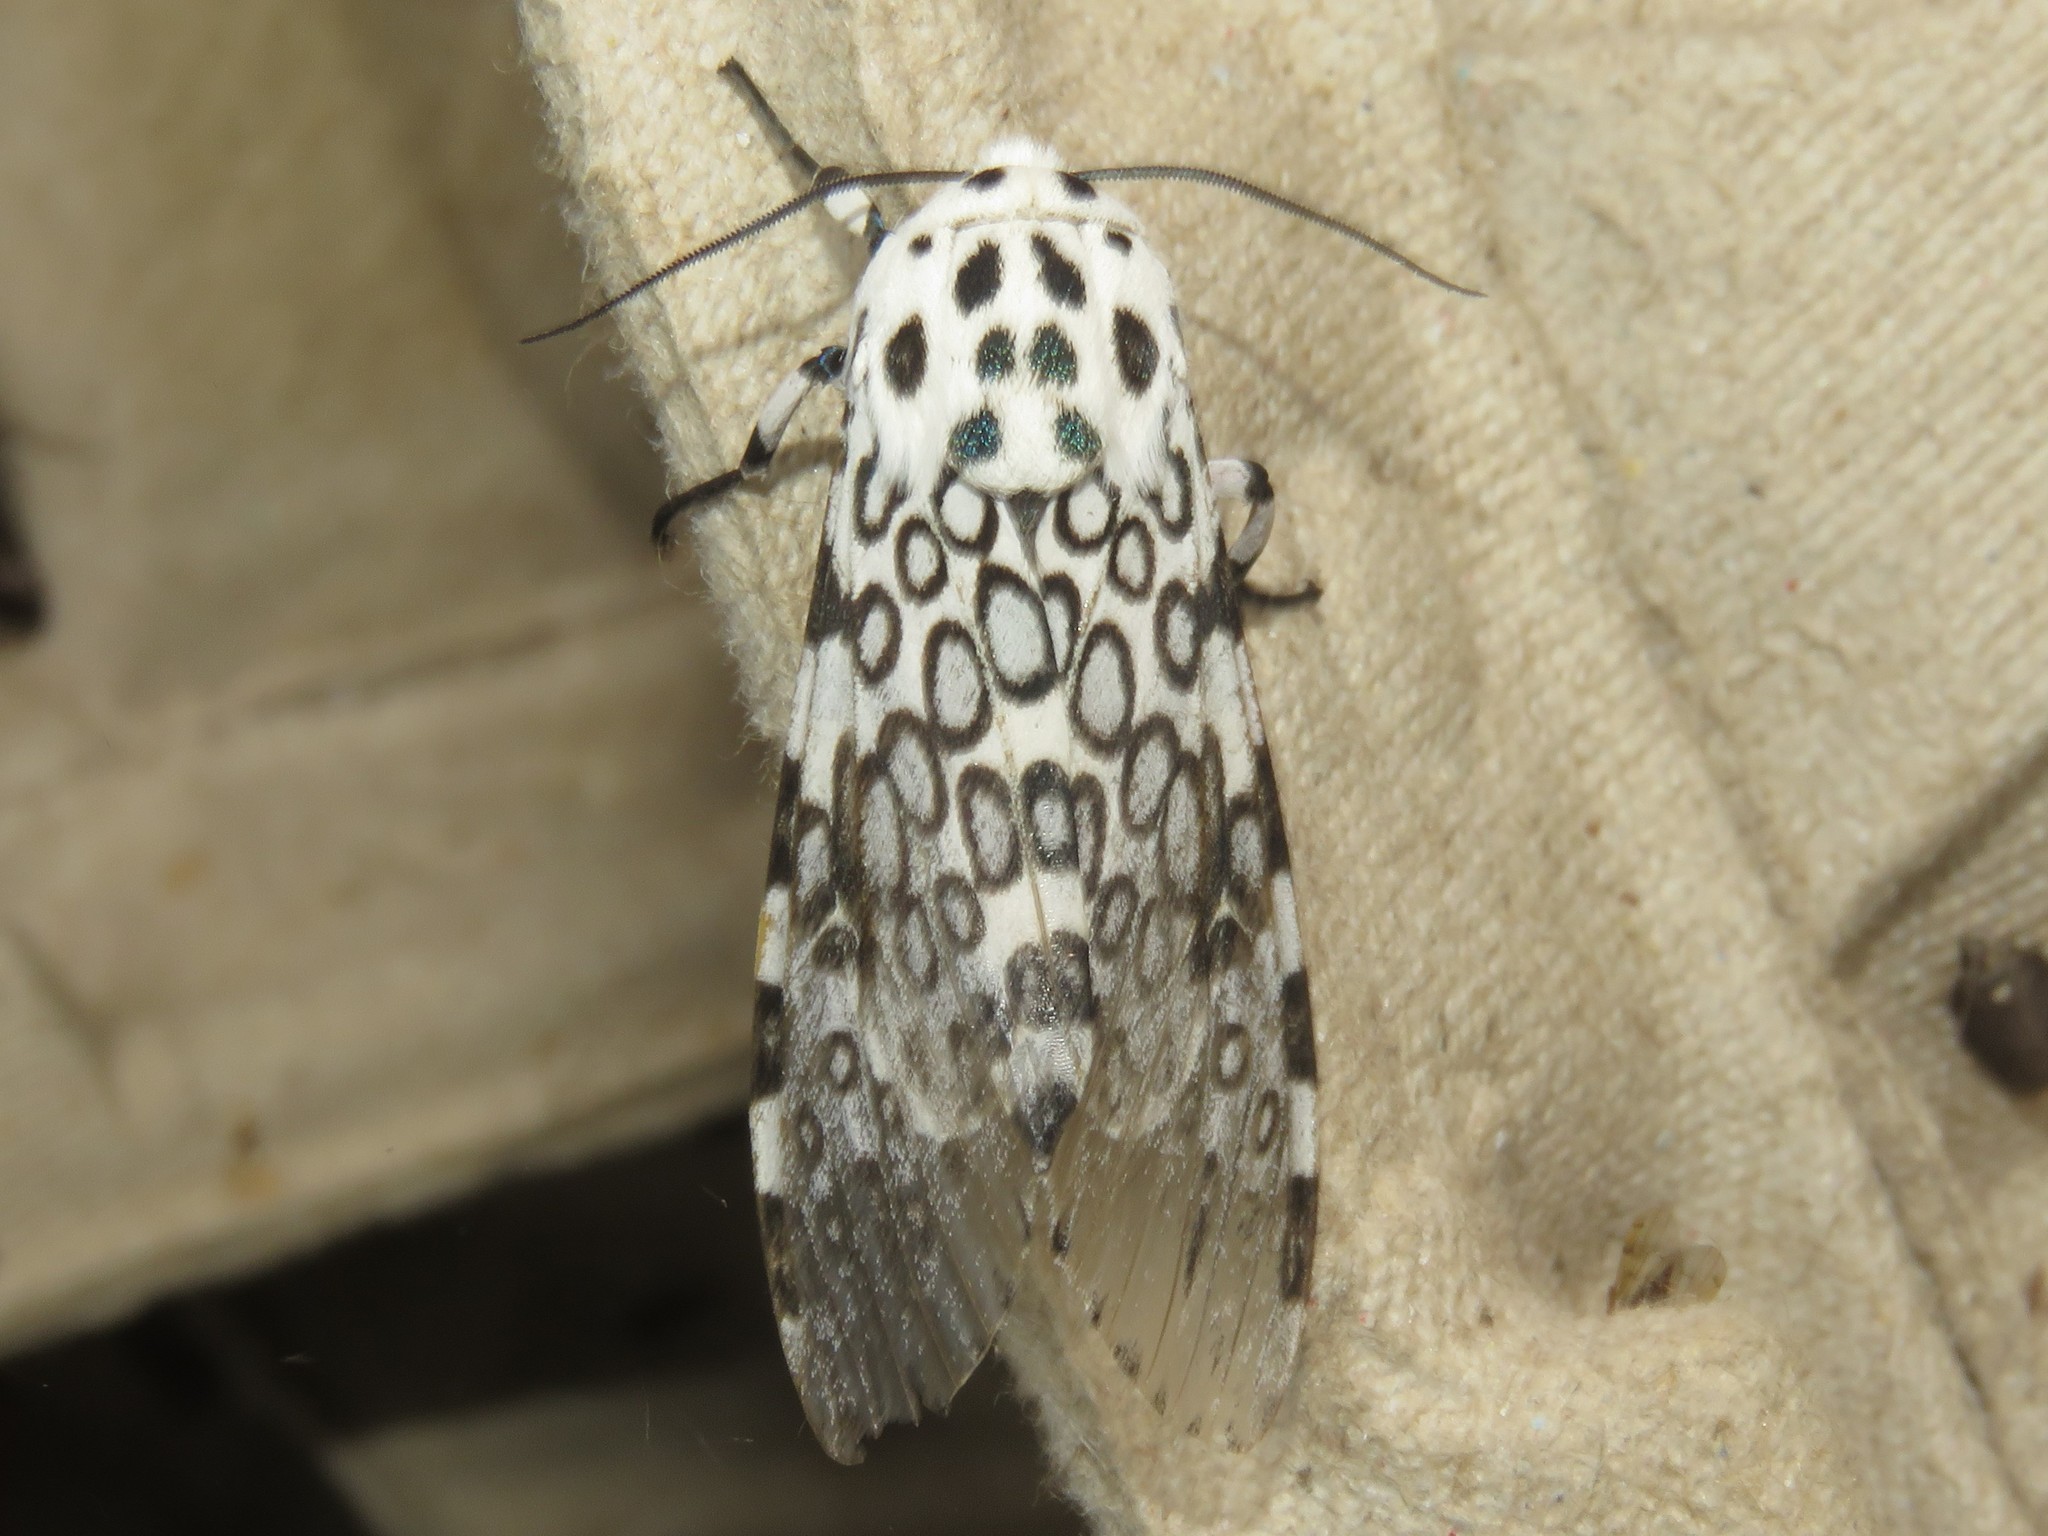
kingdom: Animalia
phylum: Arthropoda
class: Insecta
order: Lepidoptera
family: Erebidae
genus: Hypercompe
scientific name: Hypercompe scribonia
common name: Giant leopard moth
